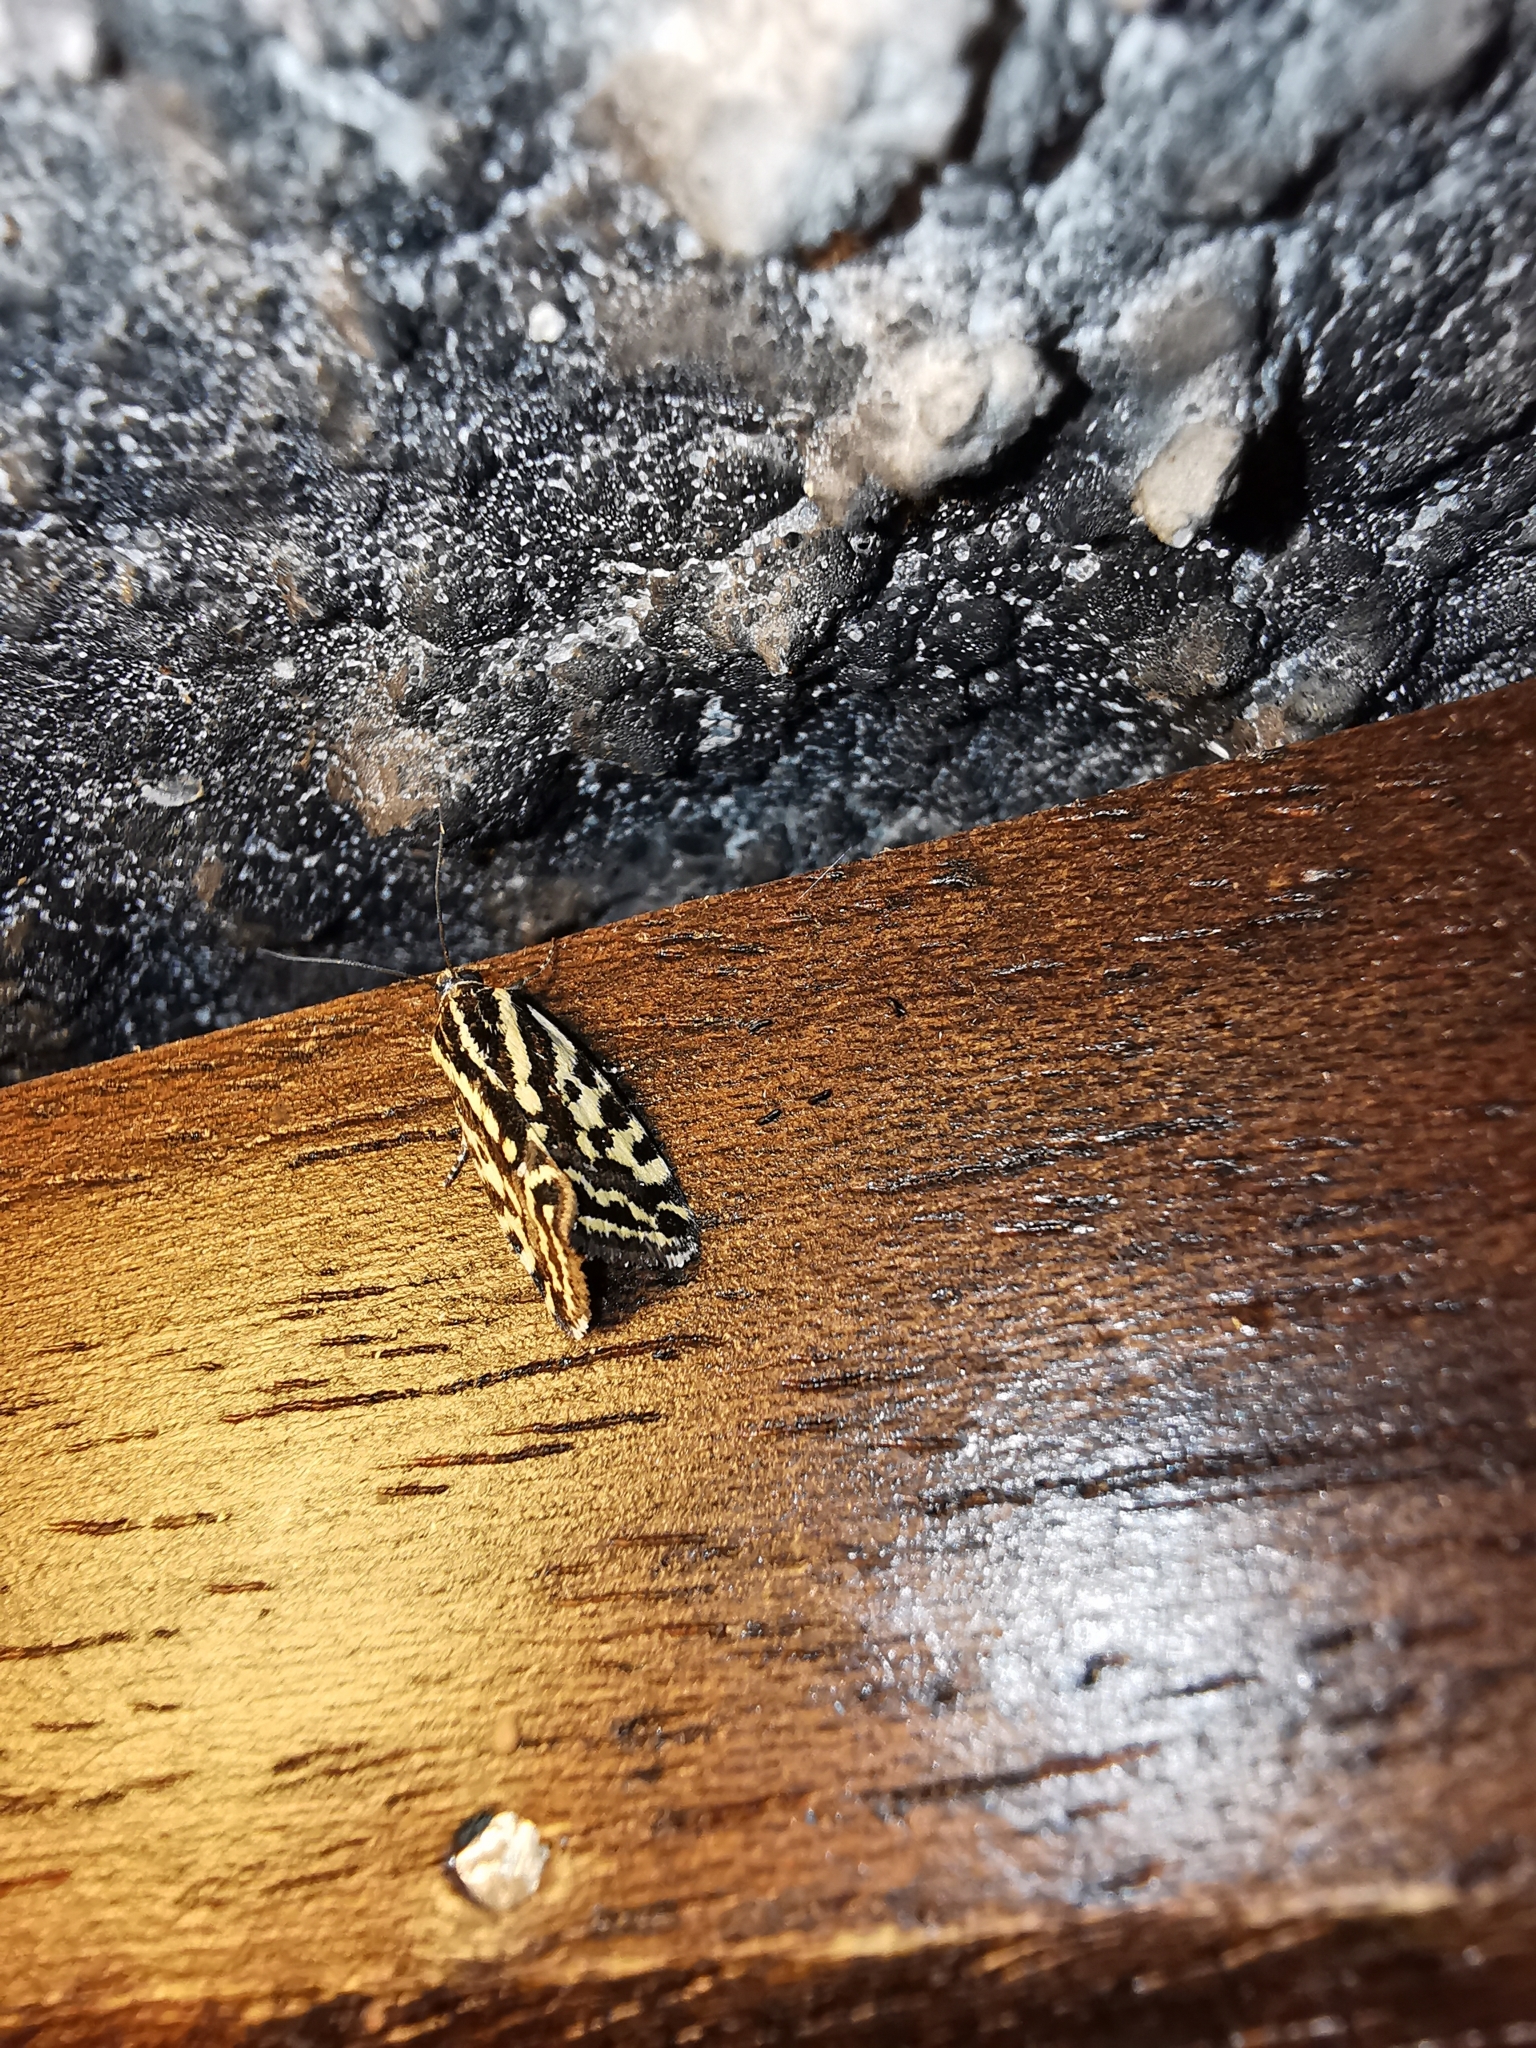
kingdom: Animalia
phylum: Arthropoda
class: Insecta
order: Lepidoptera
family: Noctuidae
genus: Acontia
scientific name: Acontia trabealis
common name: Spotted sulphur
